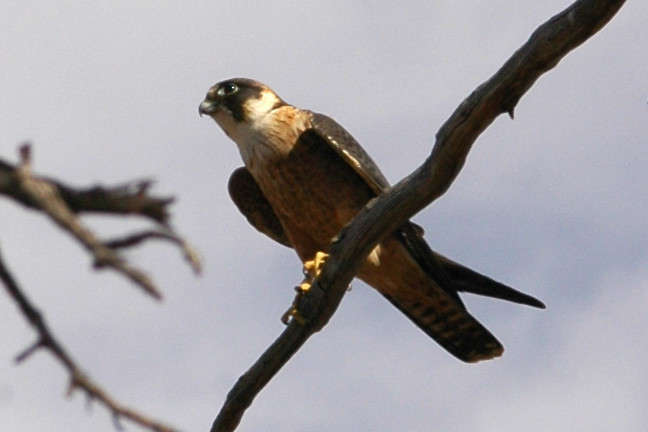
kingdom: Animalia
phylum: Chordata
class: Aves
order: Falconiformes
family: Falconidae
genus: Falco
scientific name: Falco longipennis
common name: Australian hobby
